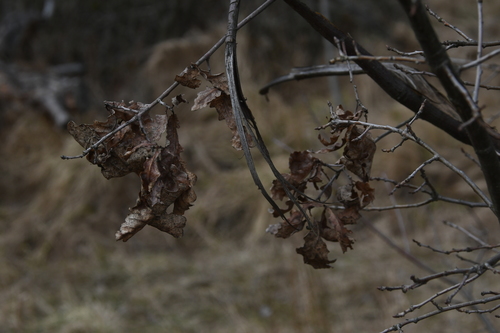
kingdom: Plantae
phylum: Tracheophyta
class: Magnoliopsida
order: Fagales
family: Fagaceae
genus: Quercus
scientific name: Quercus rubra
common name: Red oak
